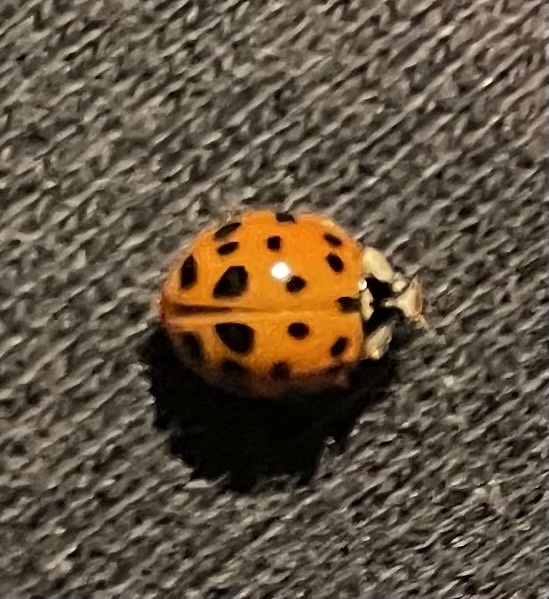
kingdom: Animalia
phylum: Arthropoda
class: Insecta
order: Coleoptera
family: Coccinellidae
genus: Harmonia
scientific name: Harmonia axyridis
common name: Harlequin ladybird
